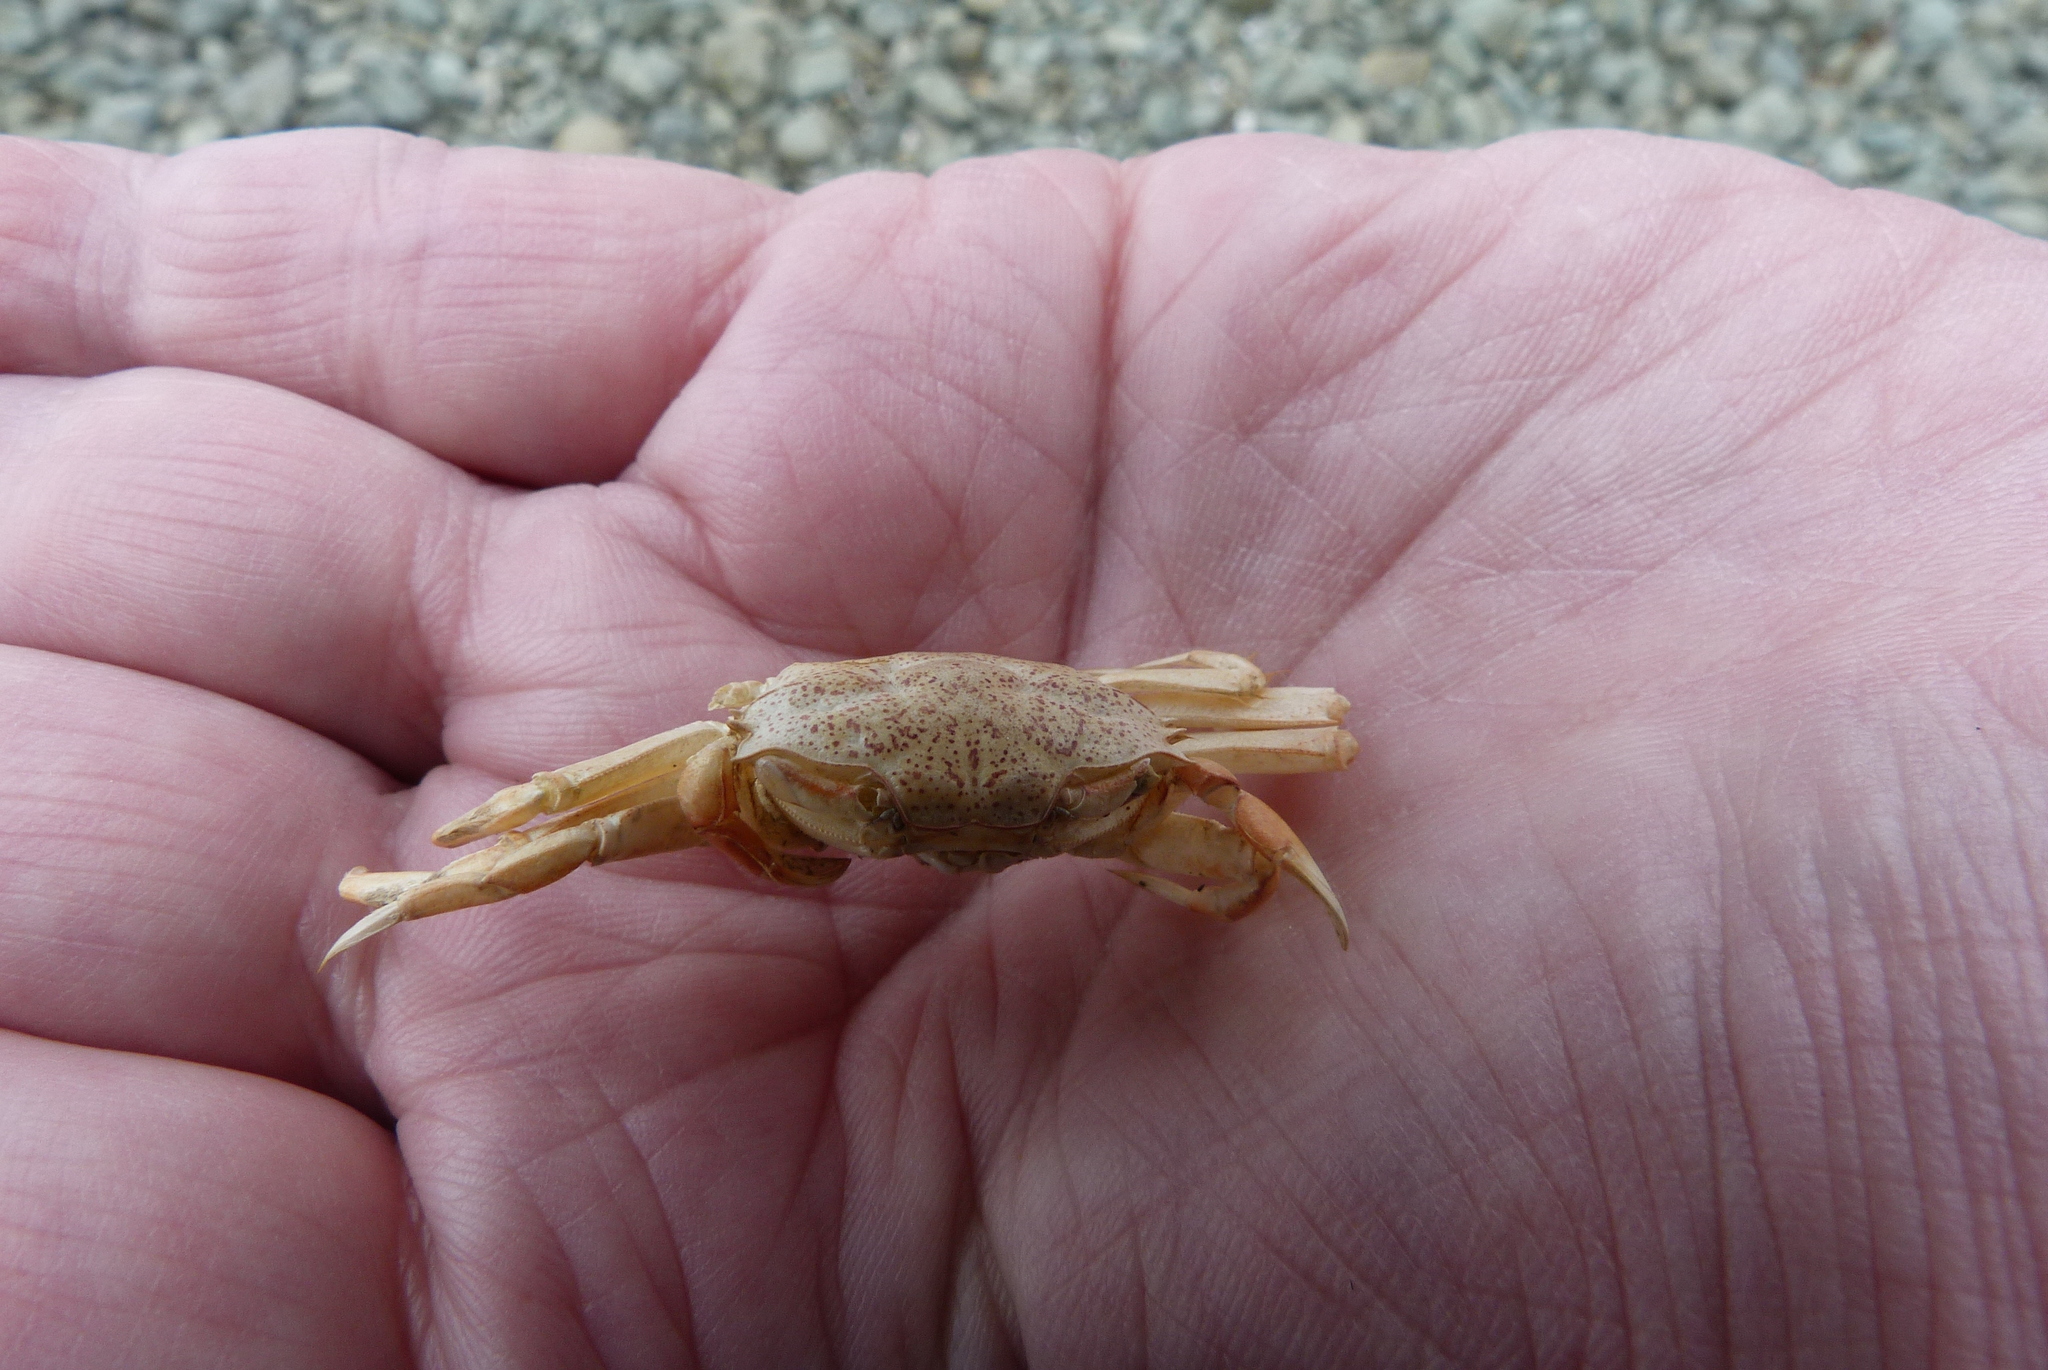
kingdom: Animalia
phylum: Arthropoda
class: Malacostraca
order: Decapoda
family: Macrophthalmidae
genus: Hemiplax
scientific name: Hemiplax hirtipes
